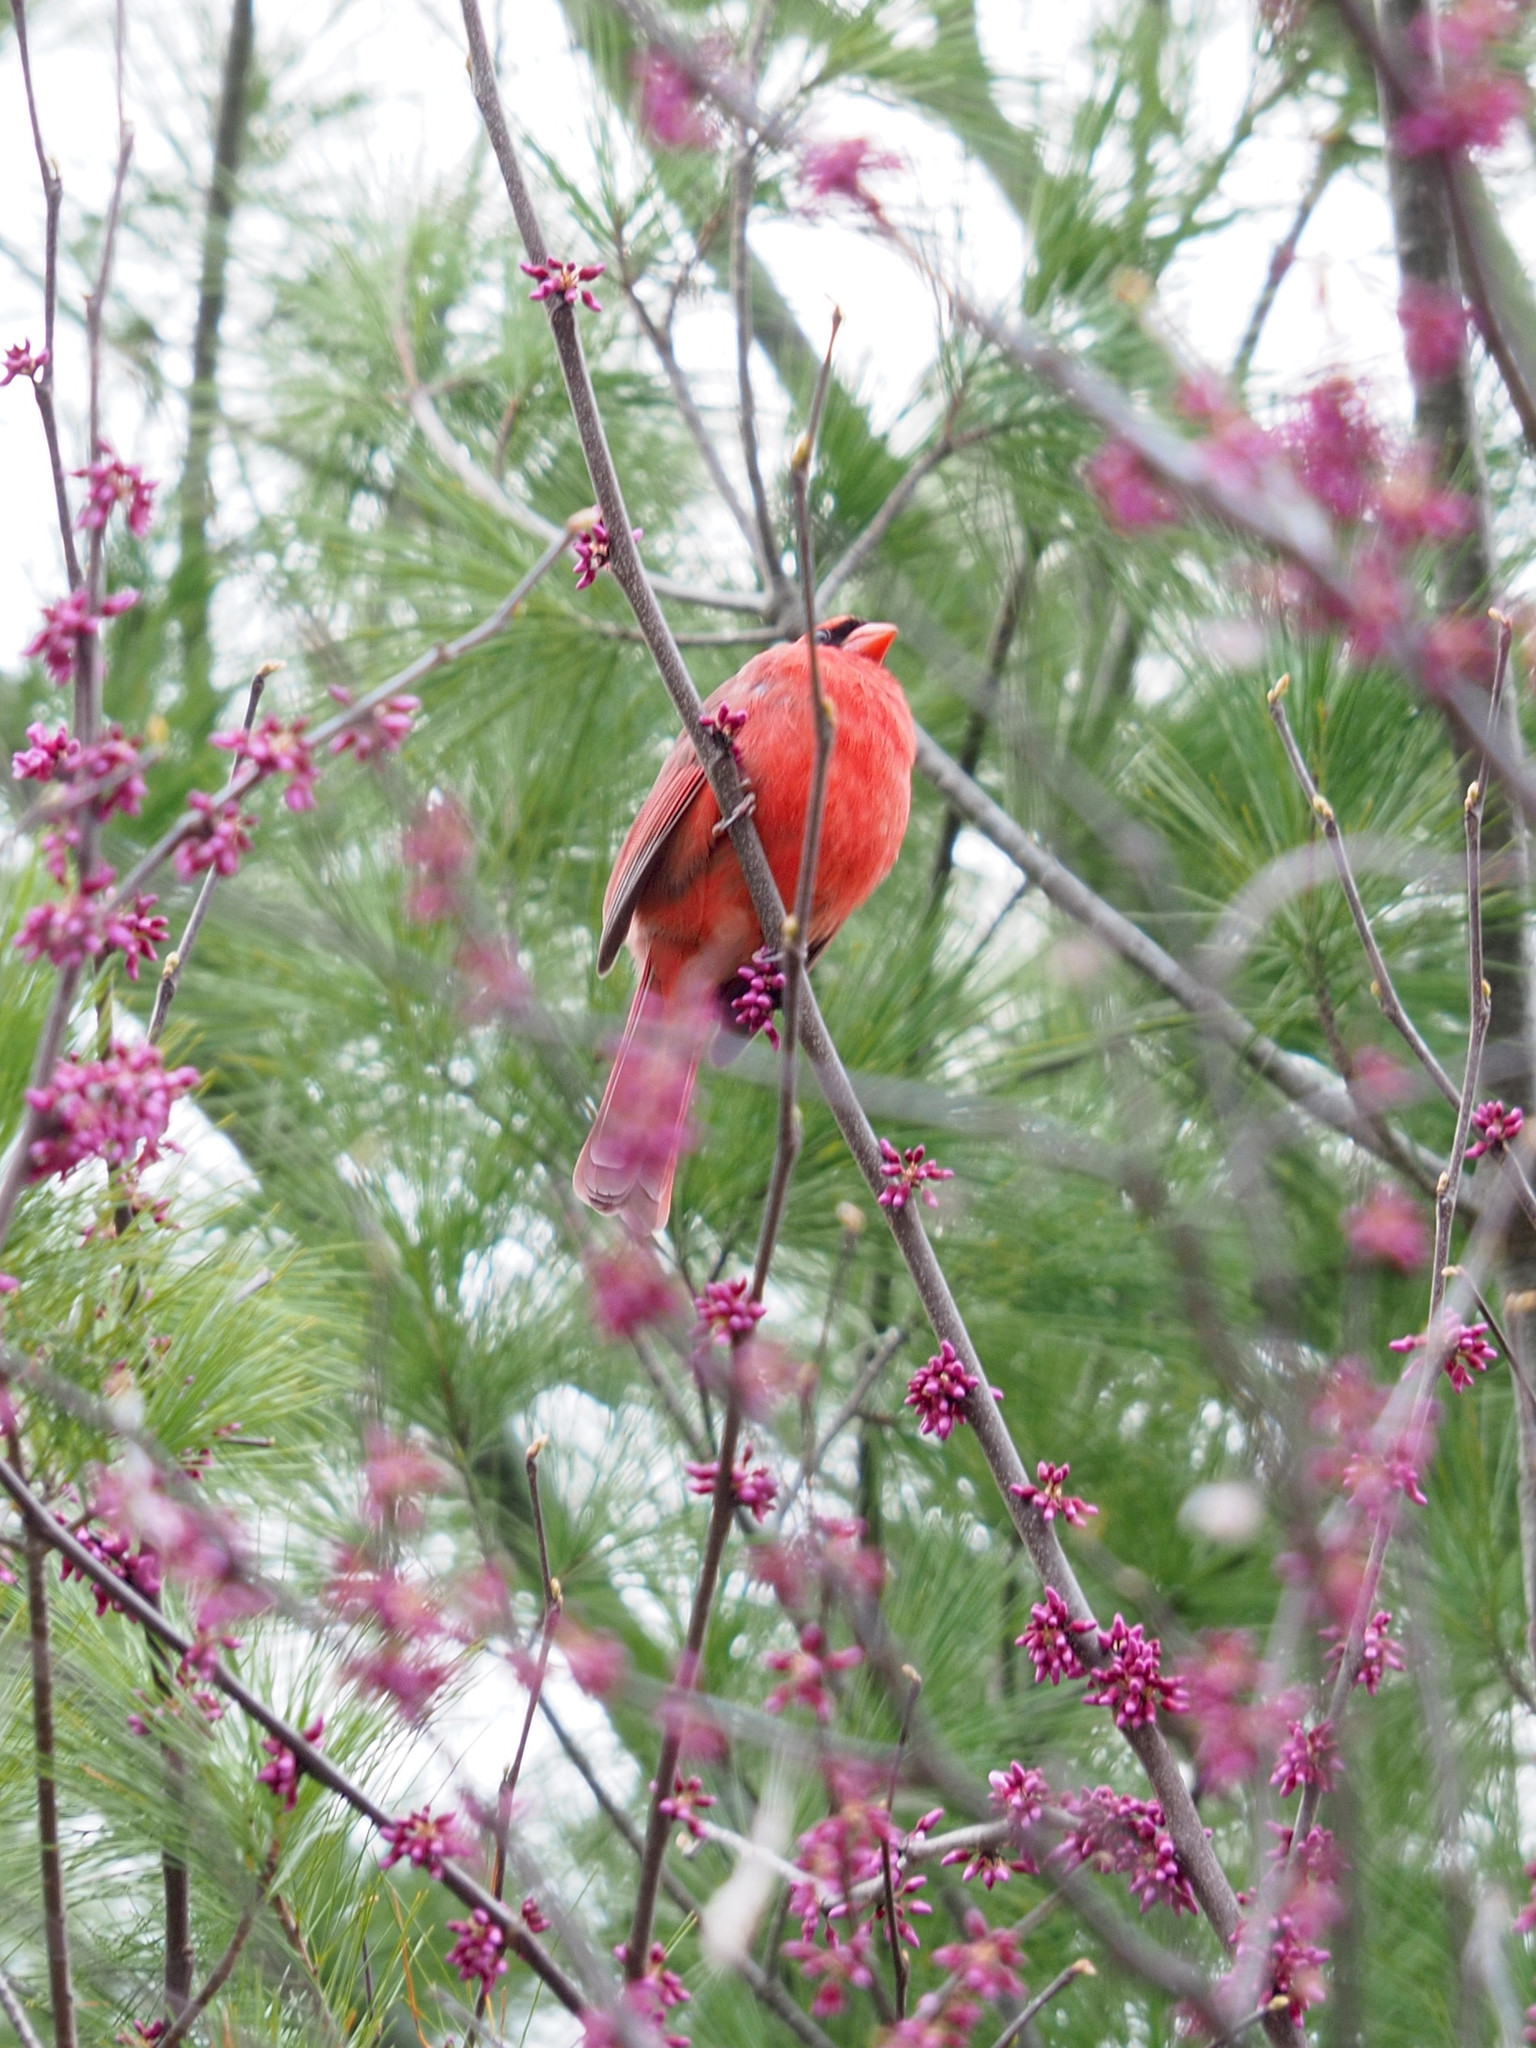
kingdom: Animalia
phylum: Chordata
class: Aves
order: Passeriformes
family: Cardinalidae
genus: Cardinalis
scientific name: Cardinalis cardinalis
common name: Northern cardinal
